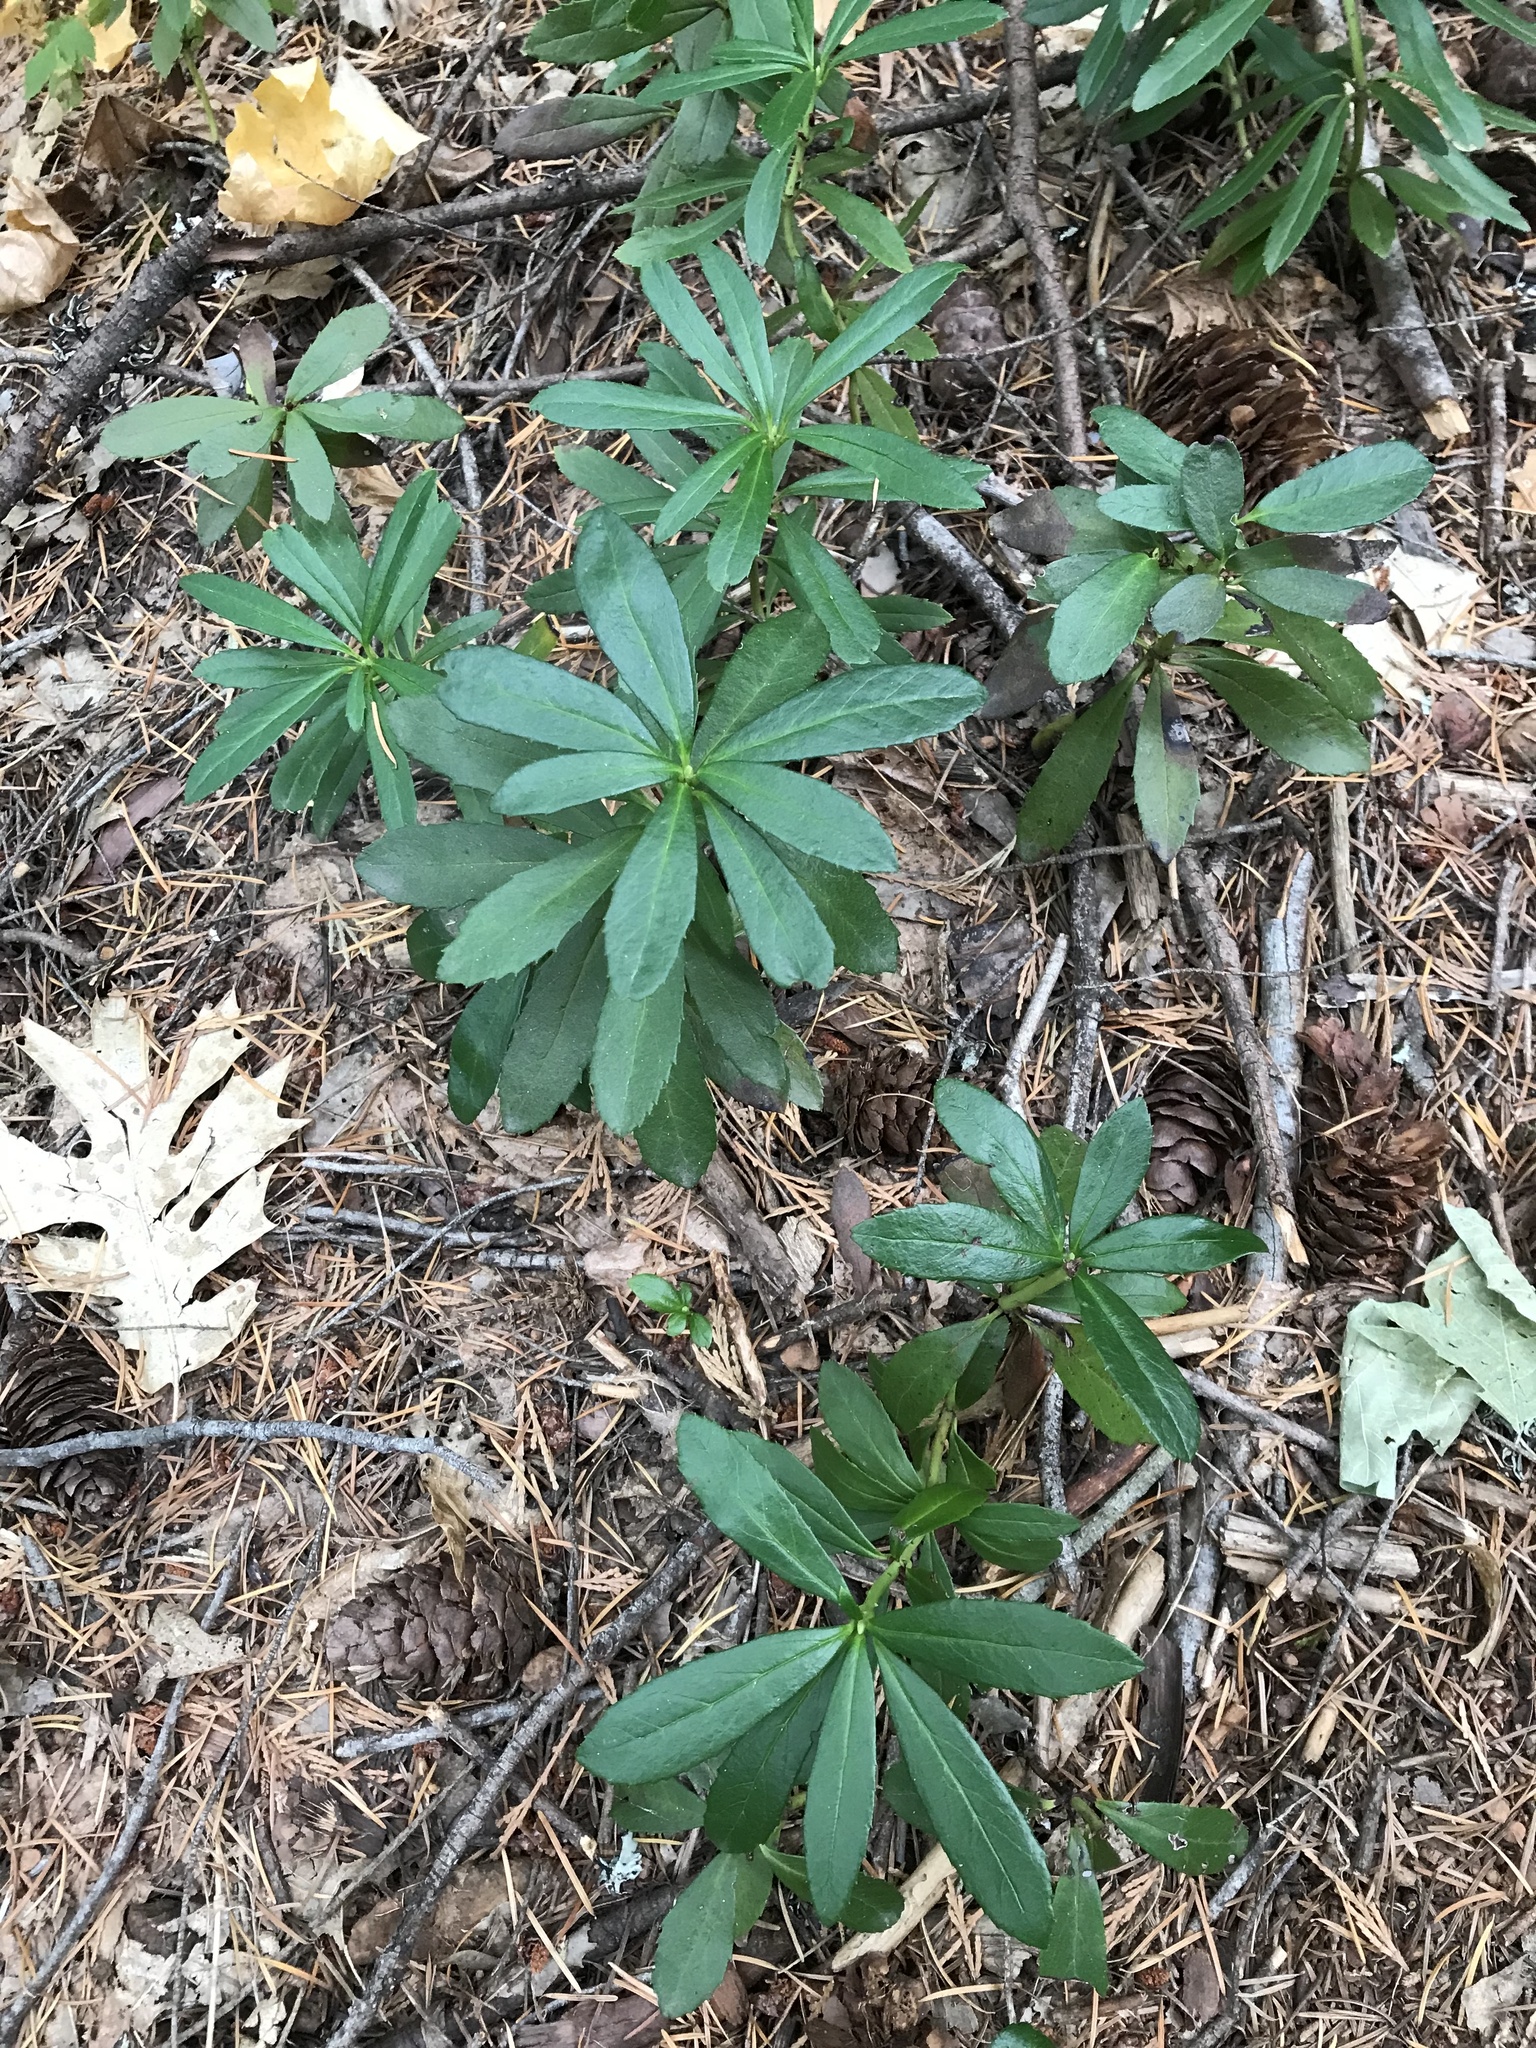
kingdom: Plantae
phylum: Tracheophyta
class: Magnoliopsida
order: Ericales
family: Ericaceae
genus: Chimaphila
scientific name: Chimaphila umbellata
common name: Pipsissewa
